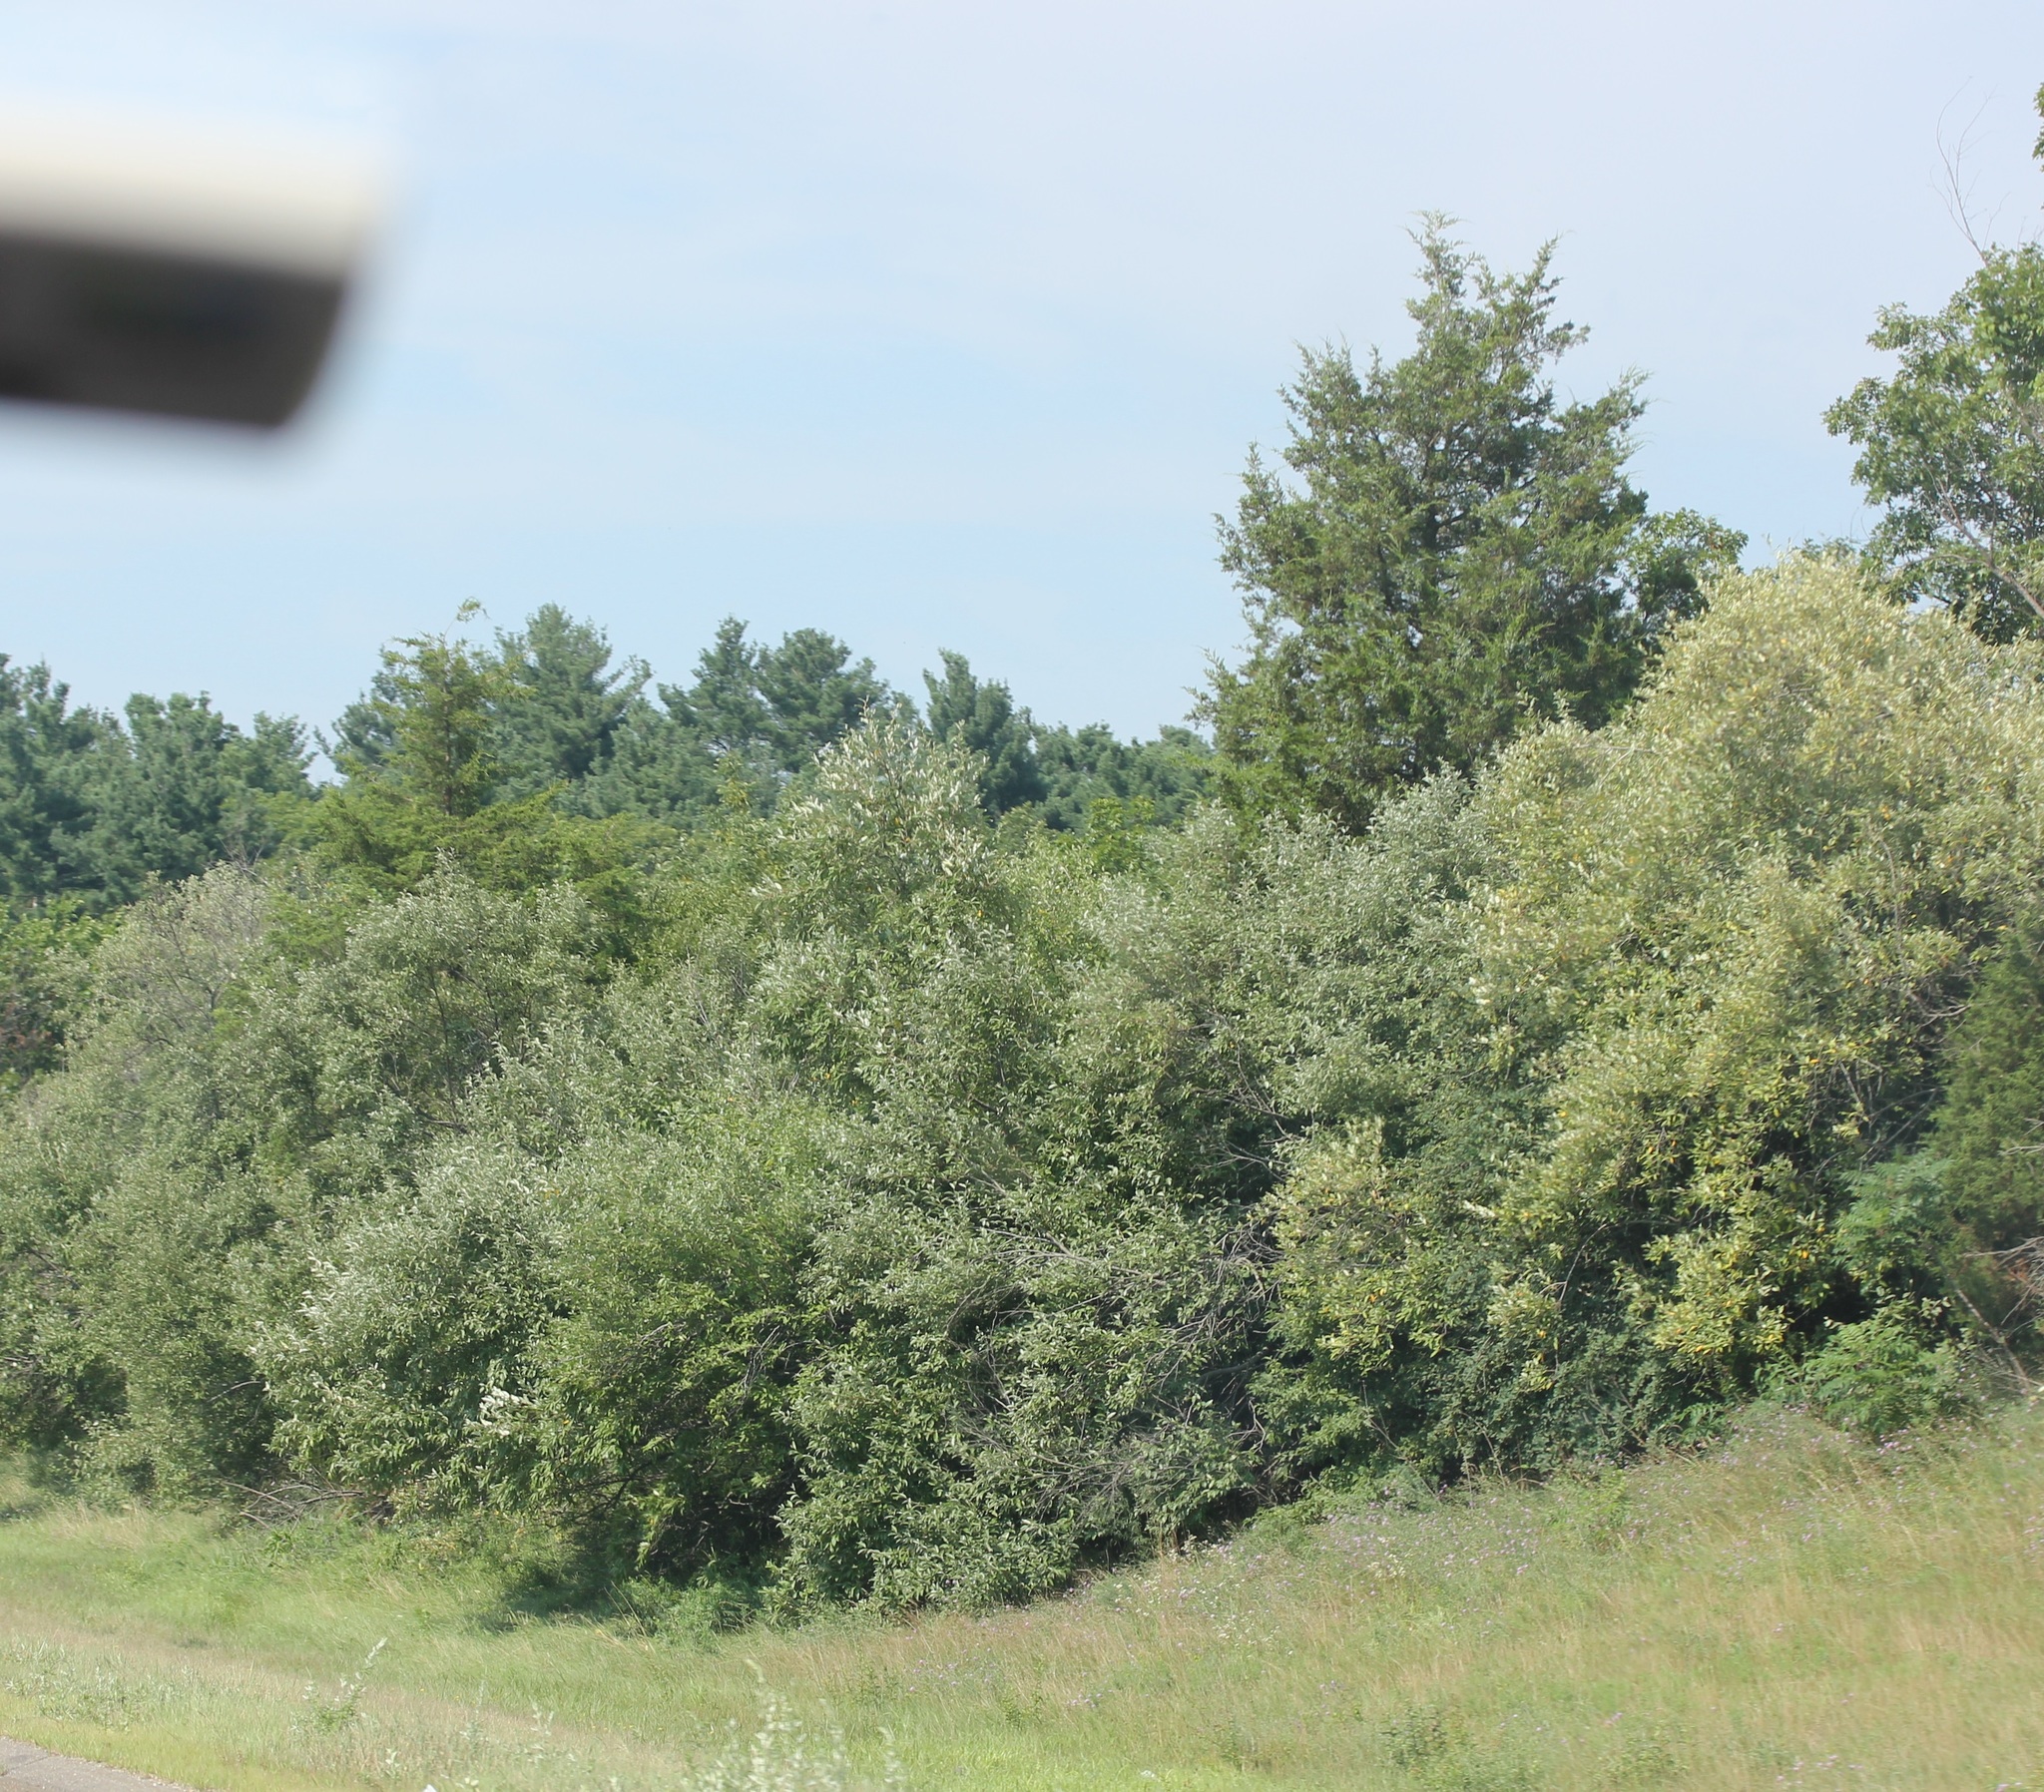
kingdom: Plantae
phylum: Tracheophyta
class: Pinopsida
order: Pinales
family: Cupressaceae
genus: Juniperus
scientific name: Juniperus virginiana
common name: Red juniper
